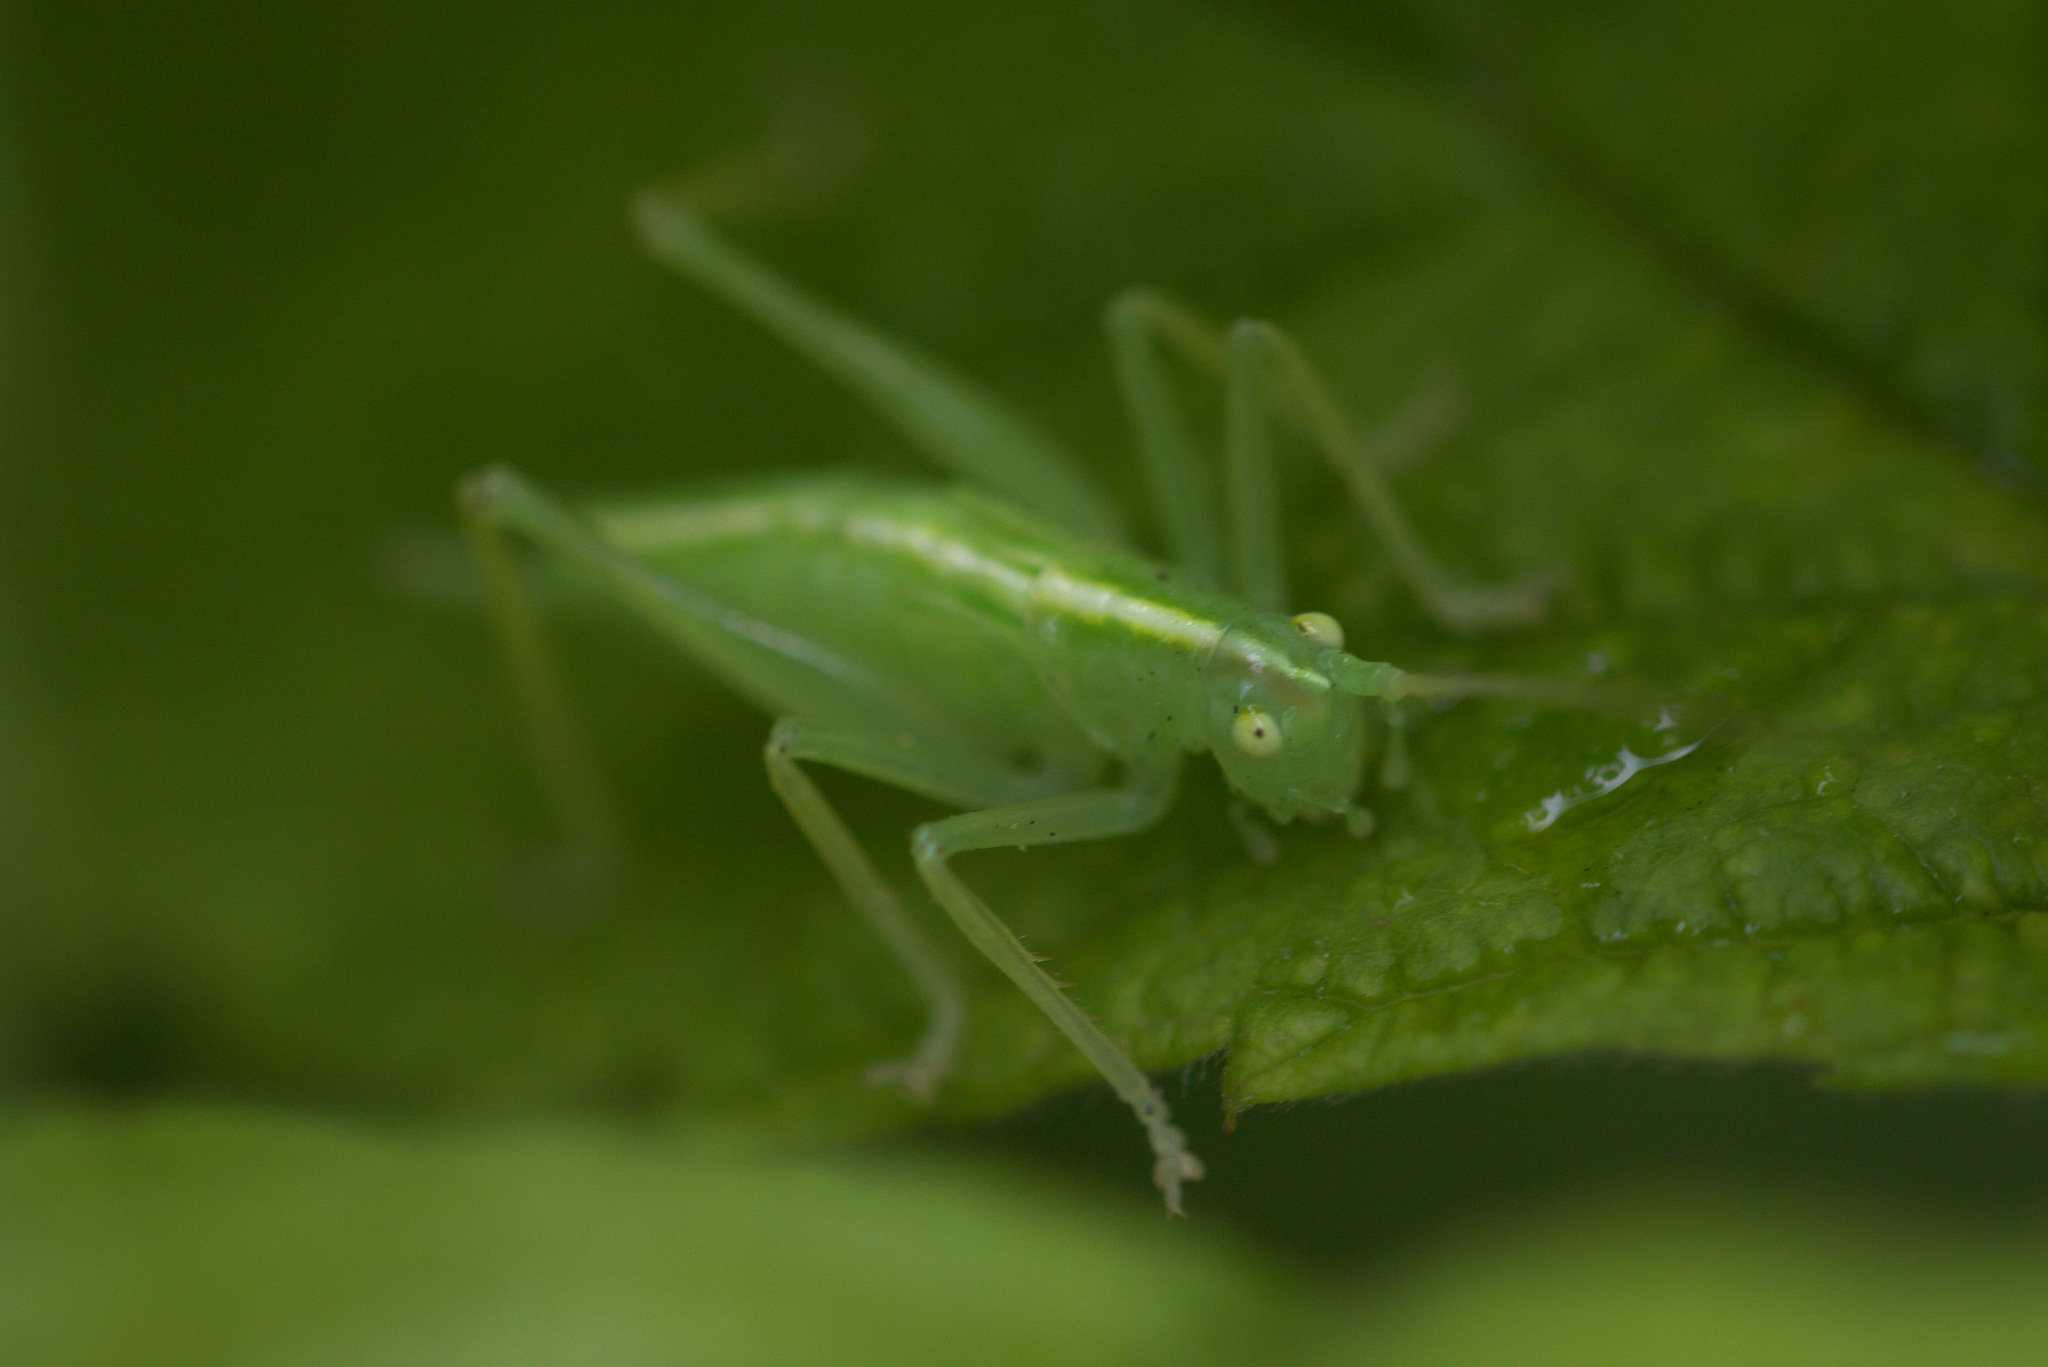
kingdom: Animalia
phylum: Arthropoda
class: Insecta
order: Orthoptera
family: Tettigoniidae
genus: Meconema
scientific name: Meconema thalassinum
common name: Oak bush-cricket
